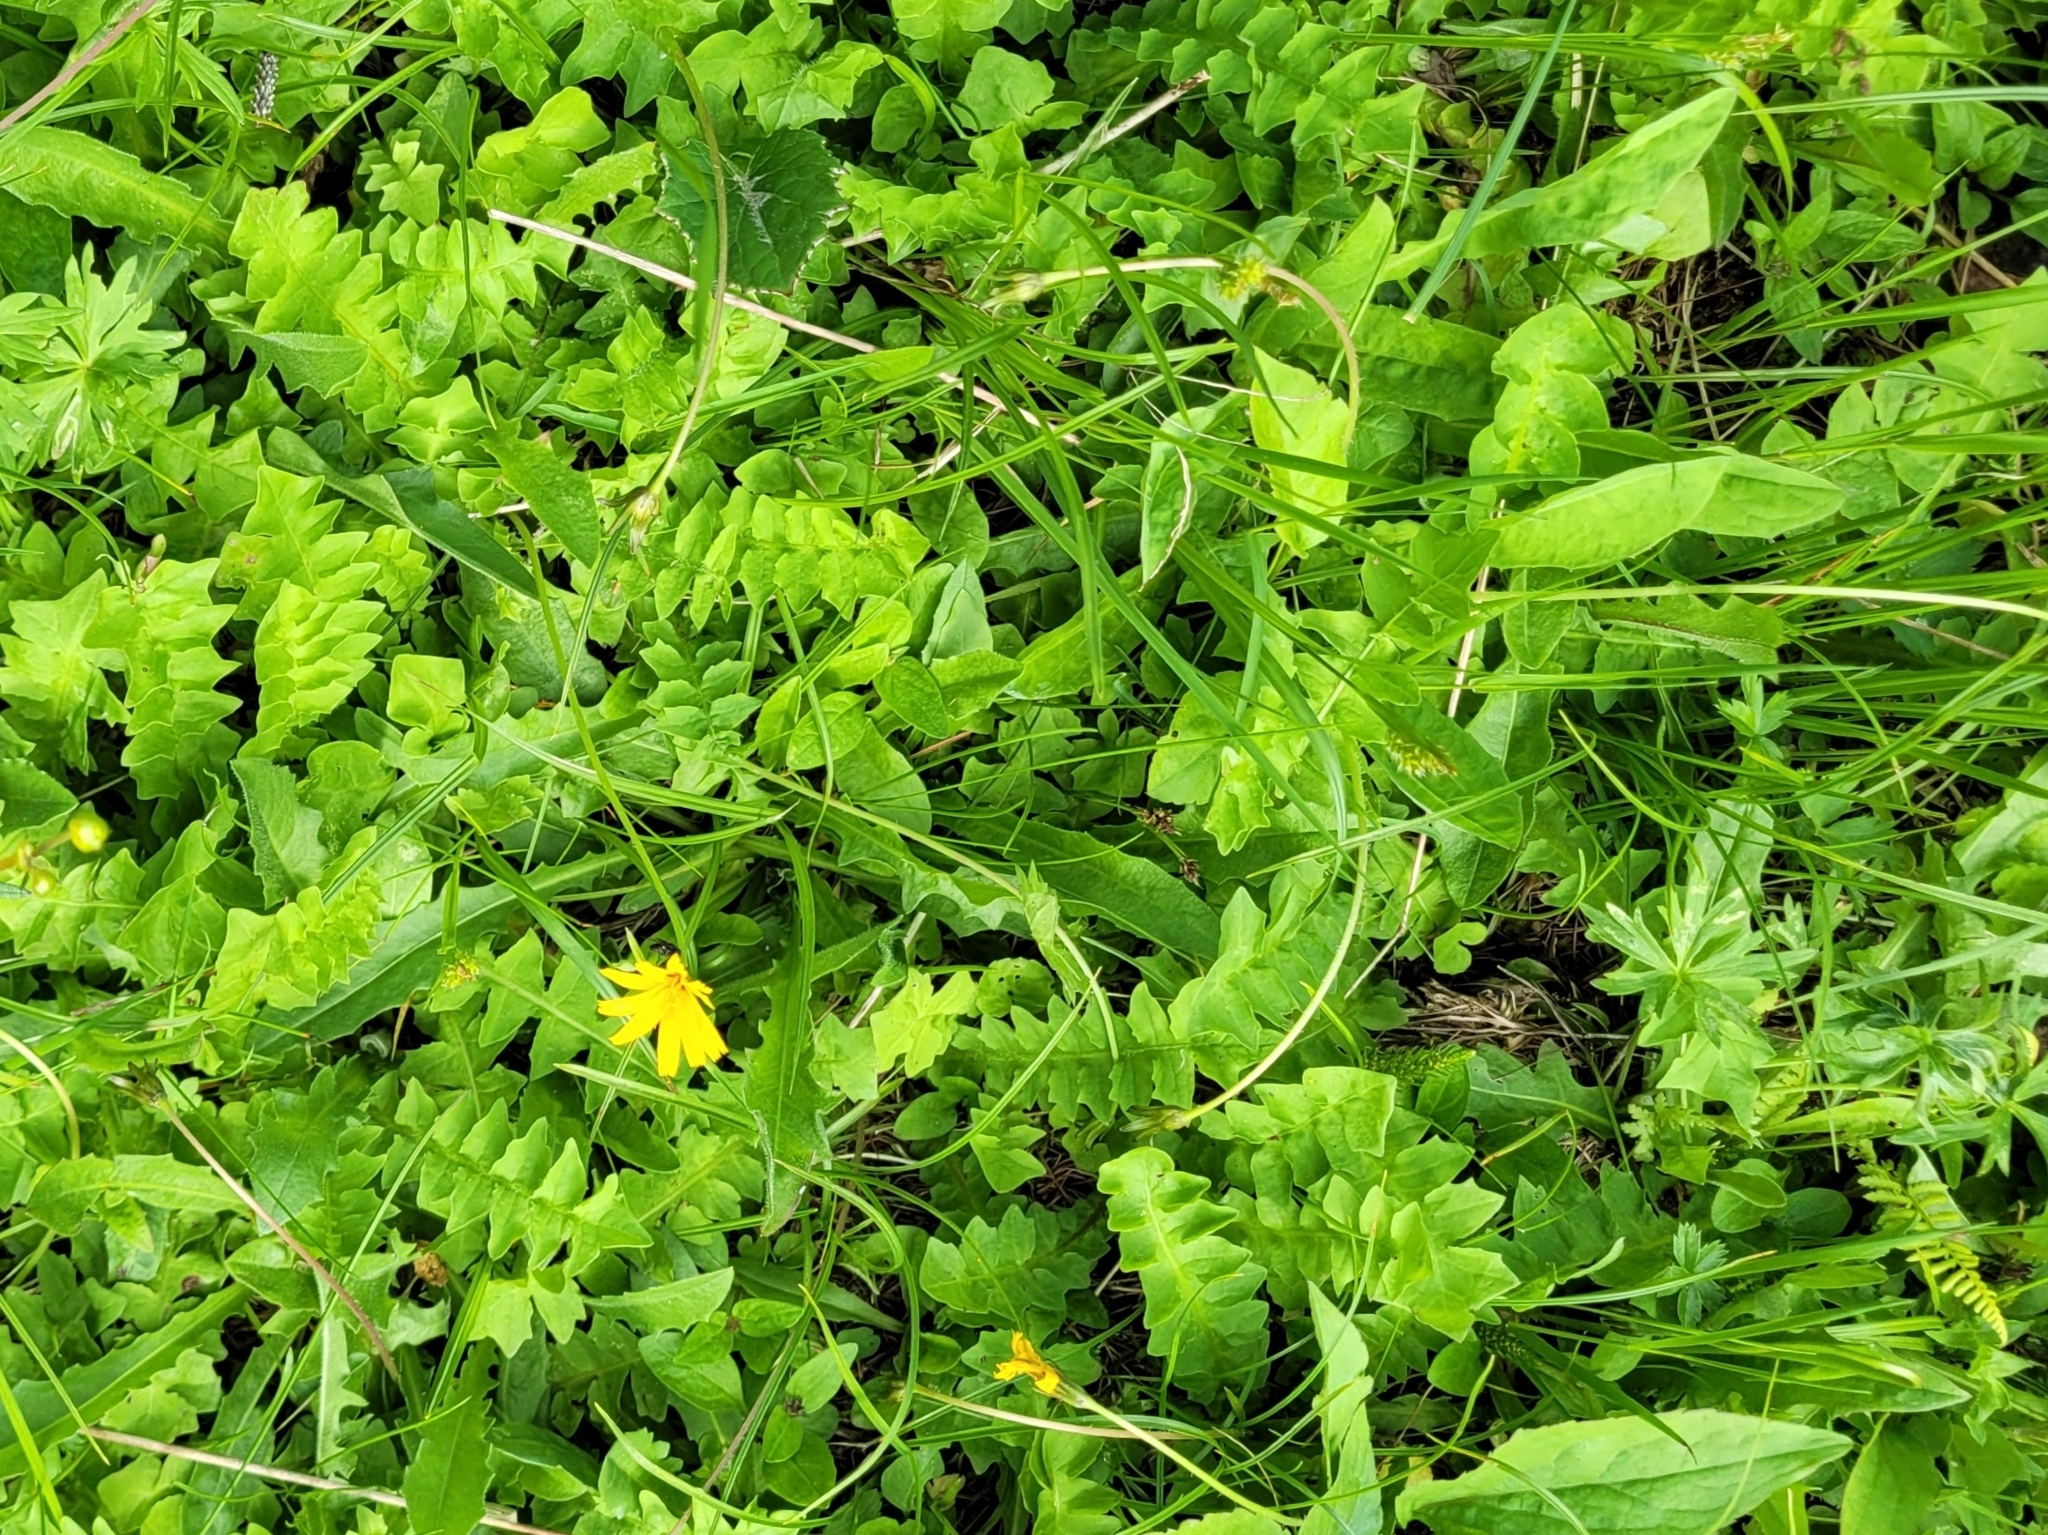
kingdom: Plantae
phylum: Tracheophyta
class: Magnoliopsida
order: Asterales
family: Asteraceae
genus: Aposeris
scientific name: Aposeris foetida
